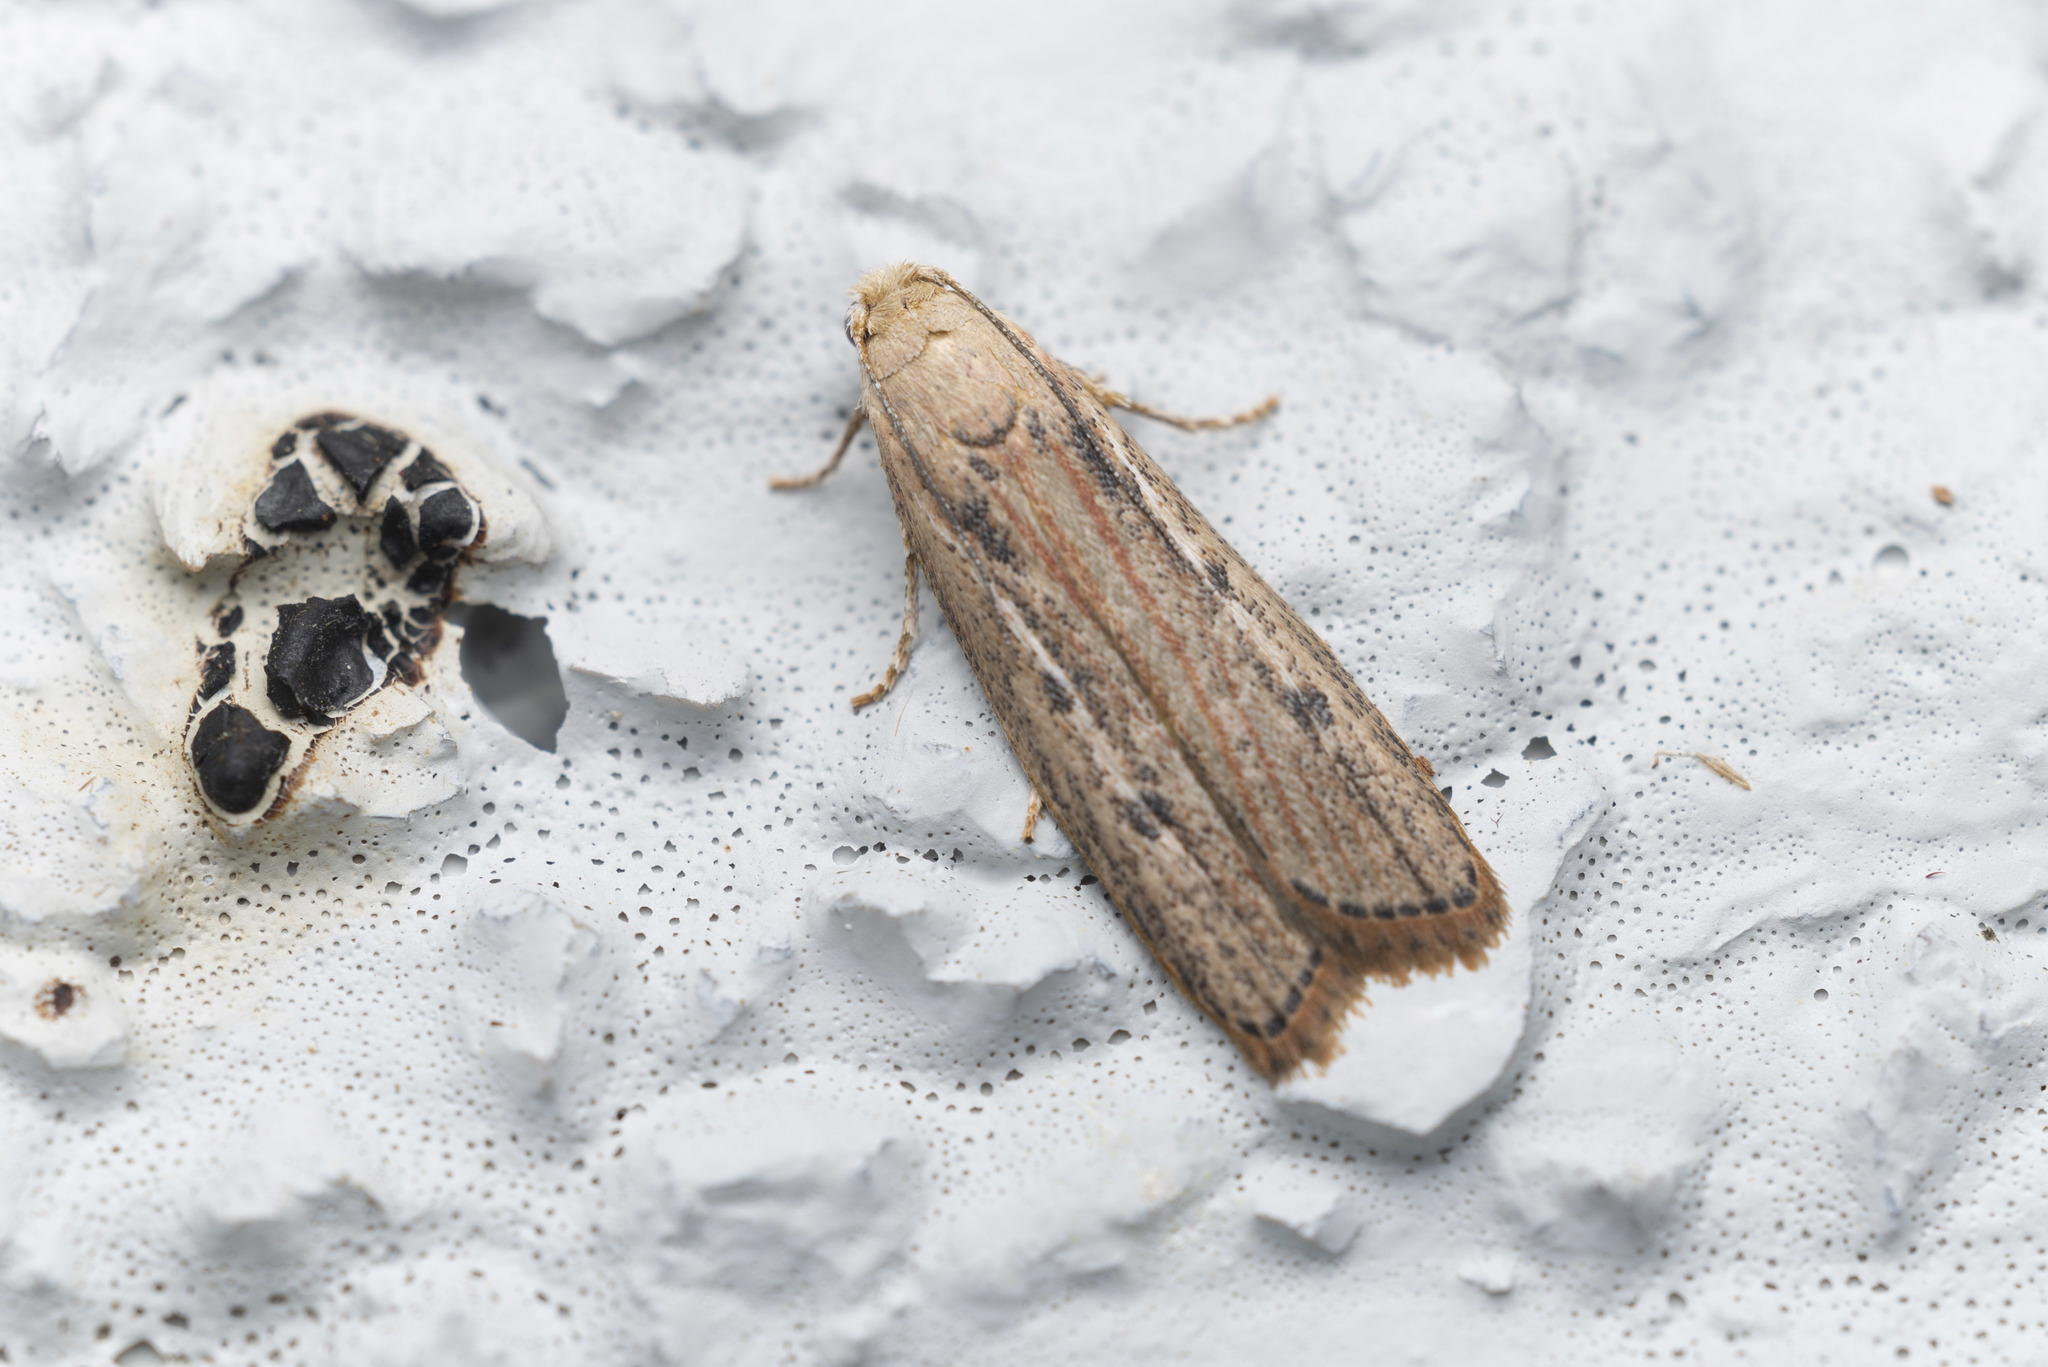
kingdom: Animalia
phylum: Arthropoda
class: Insecta
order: Lepidoptera
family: Pyralidae
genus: Tirathaba
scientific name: Tirathaba rufivena
